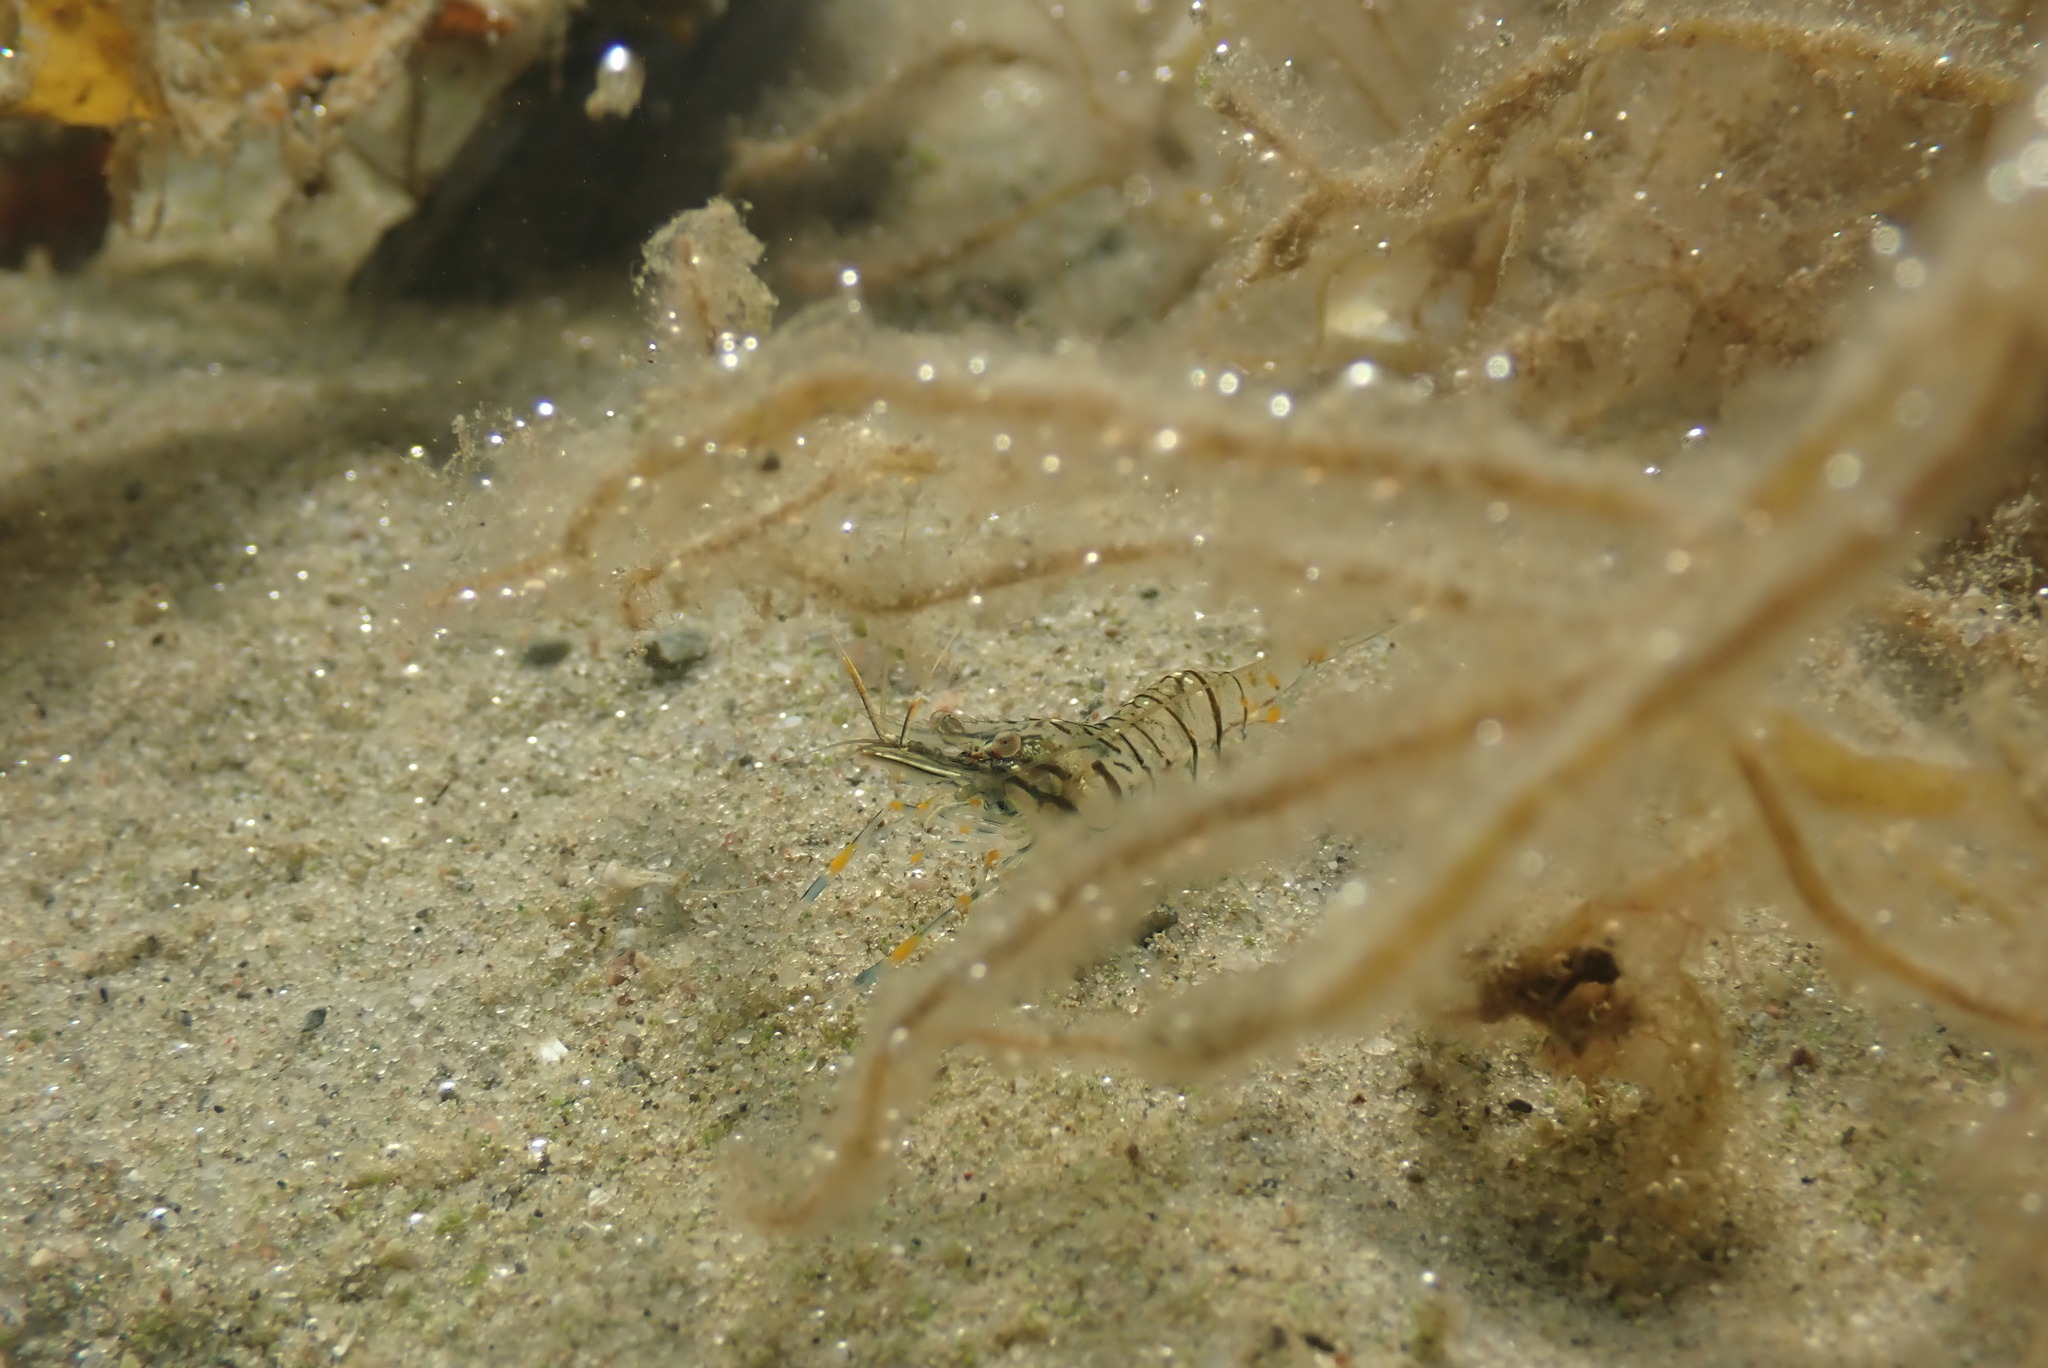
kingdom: Animalia
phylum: Arthropoda
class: Malacostraca
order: Decapoda
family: Palaemonidae
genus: Palaemon
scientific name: Palaemon elegans
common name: Grass prawm
